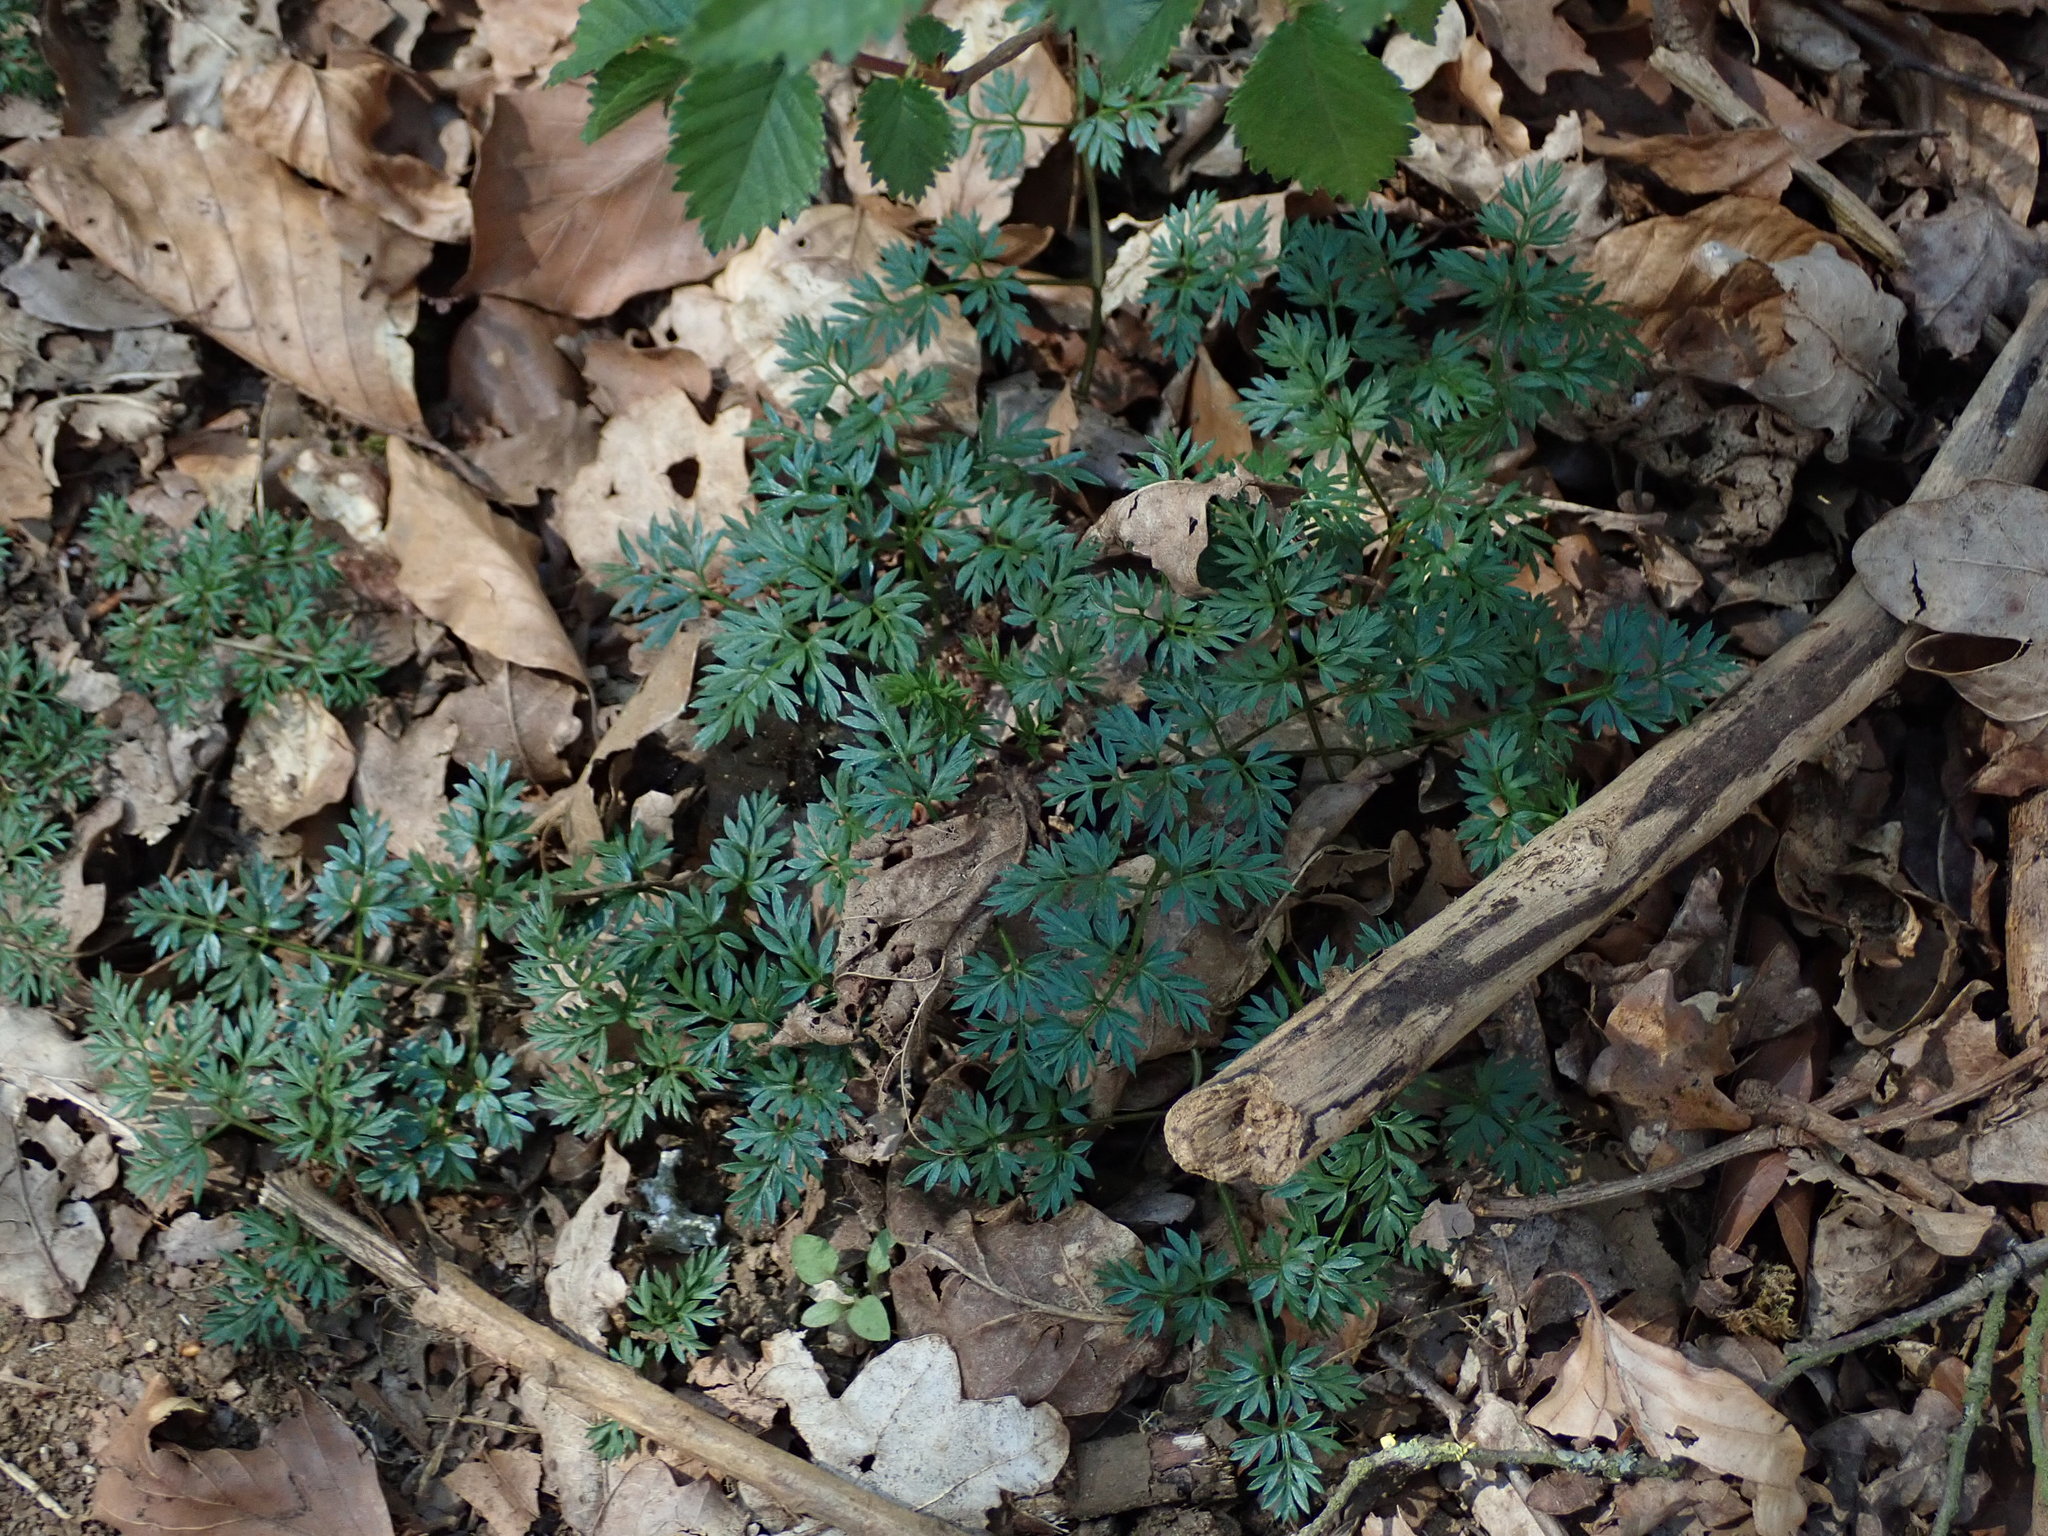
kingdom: Plantae
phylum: Tracheophyta
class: Magnoliopsida
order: Apiales
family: Apiaceae
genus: Conopodium
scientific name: Conopodium majus
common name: Pignut
